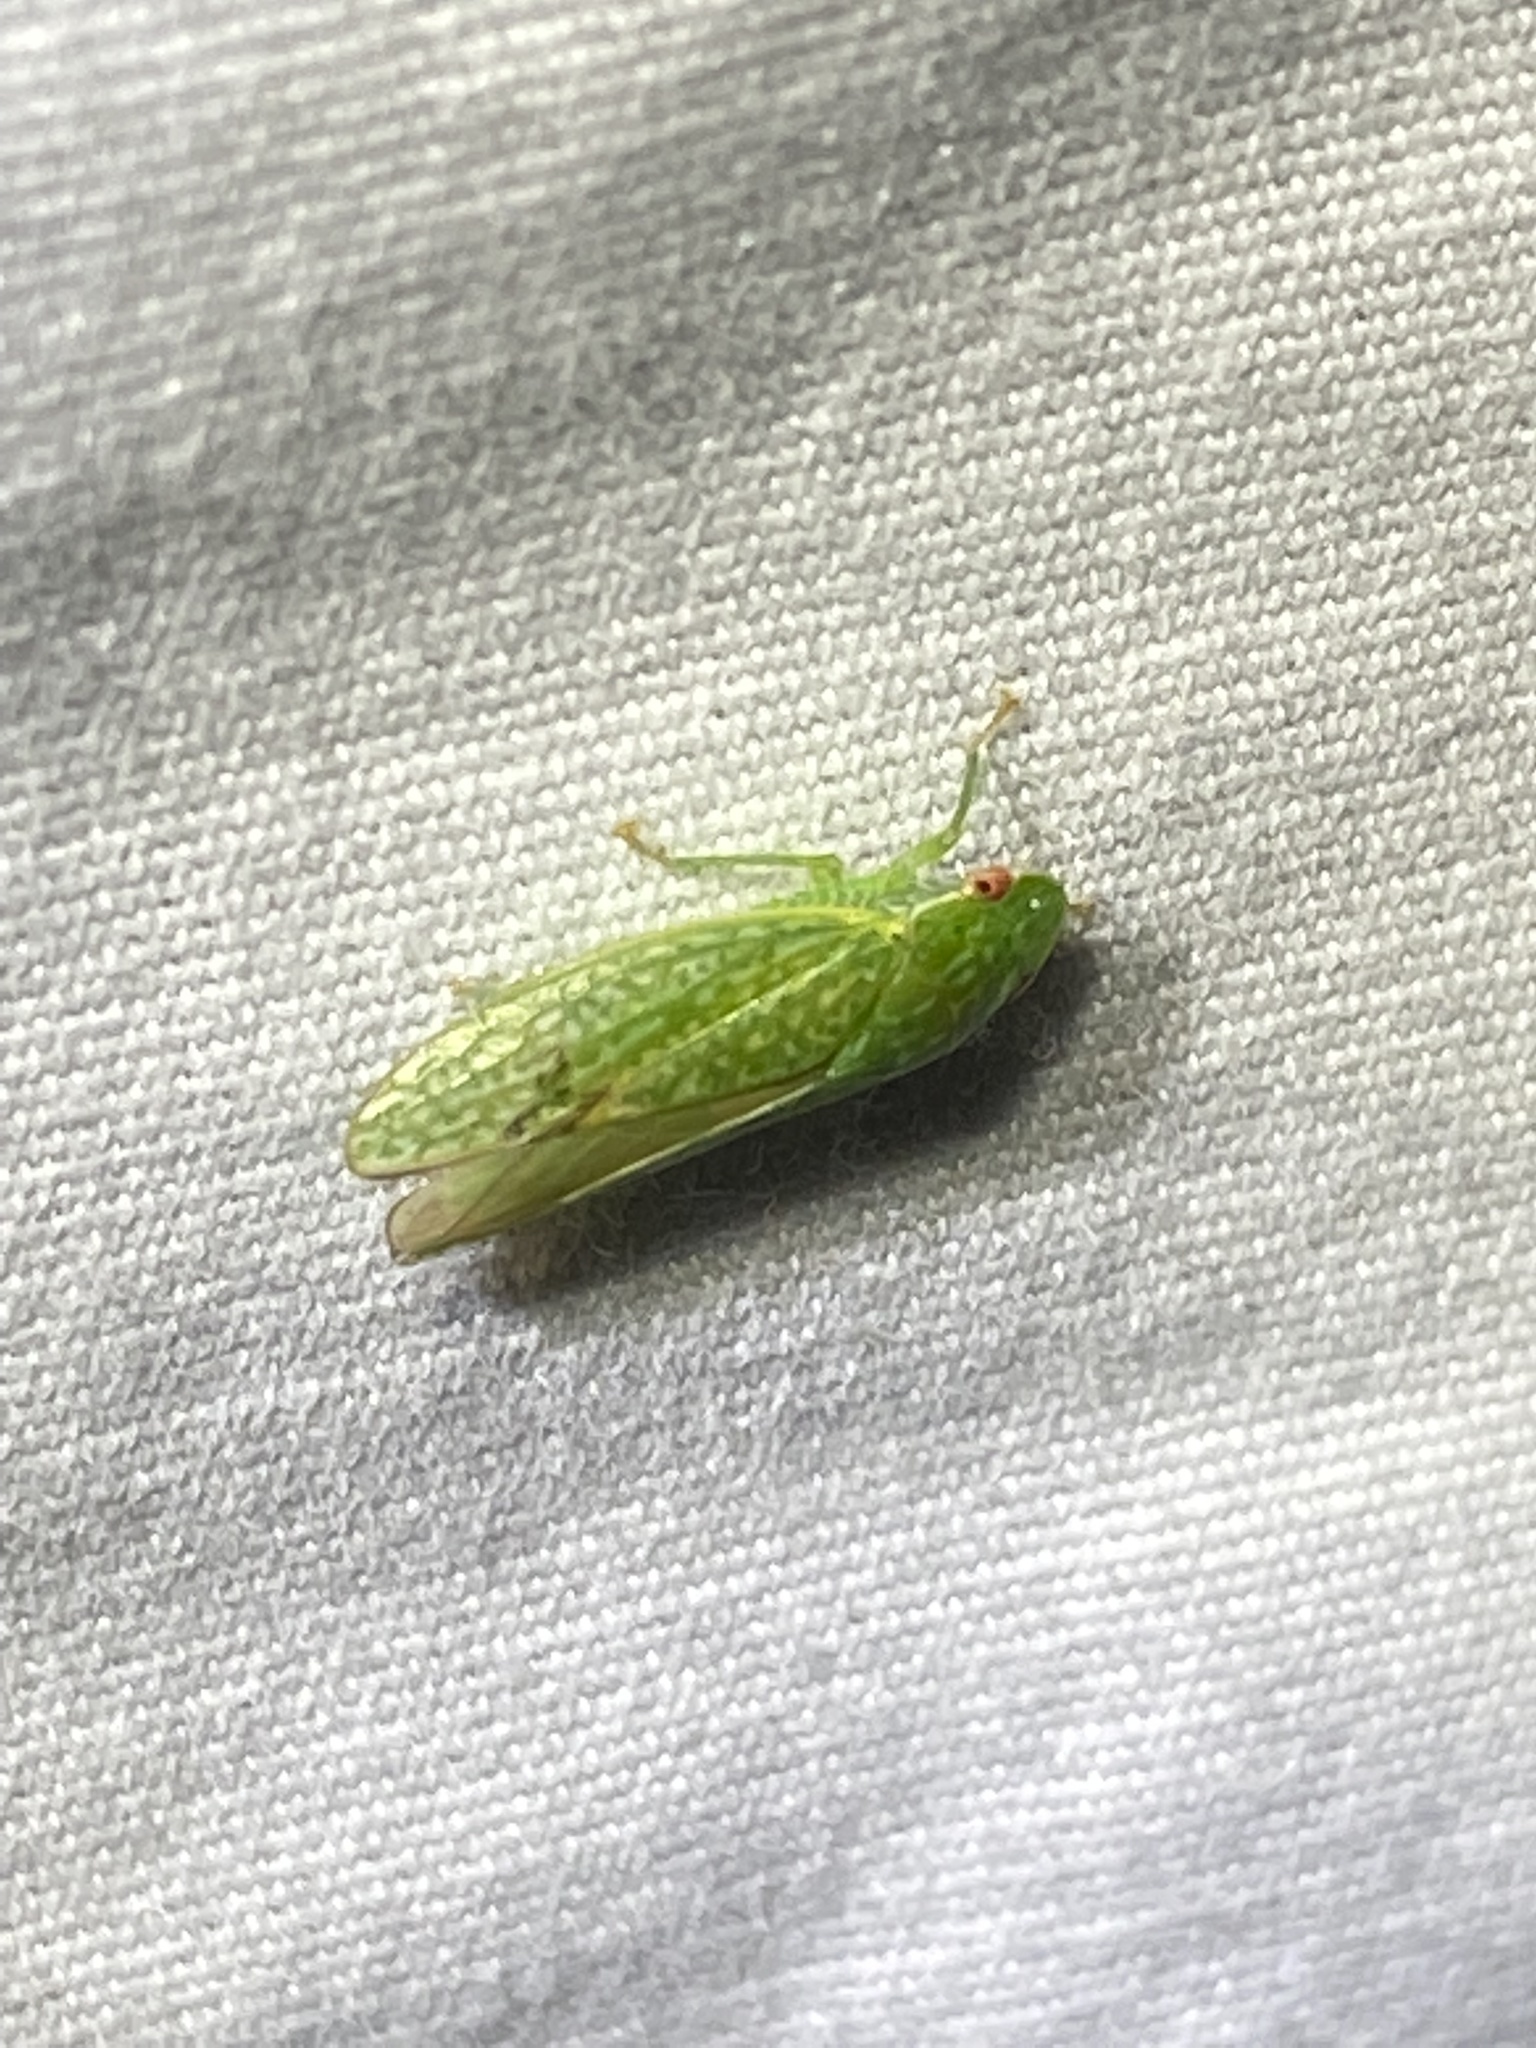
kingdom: Animalia
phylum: Arthropoda
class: Insecta
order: Hemiptera
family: Cicadellidae
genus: Rugosana
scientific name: Rugosana querci
